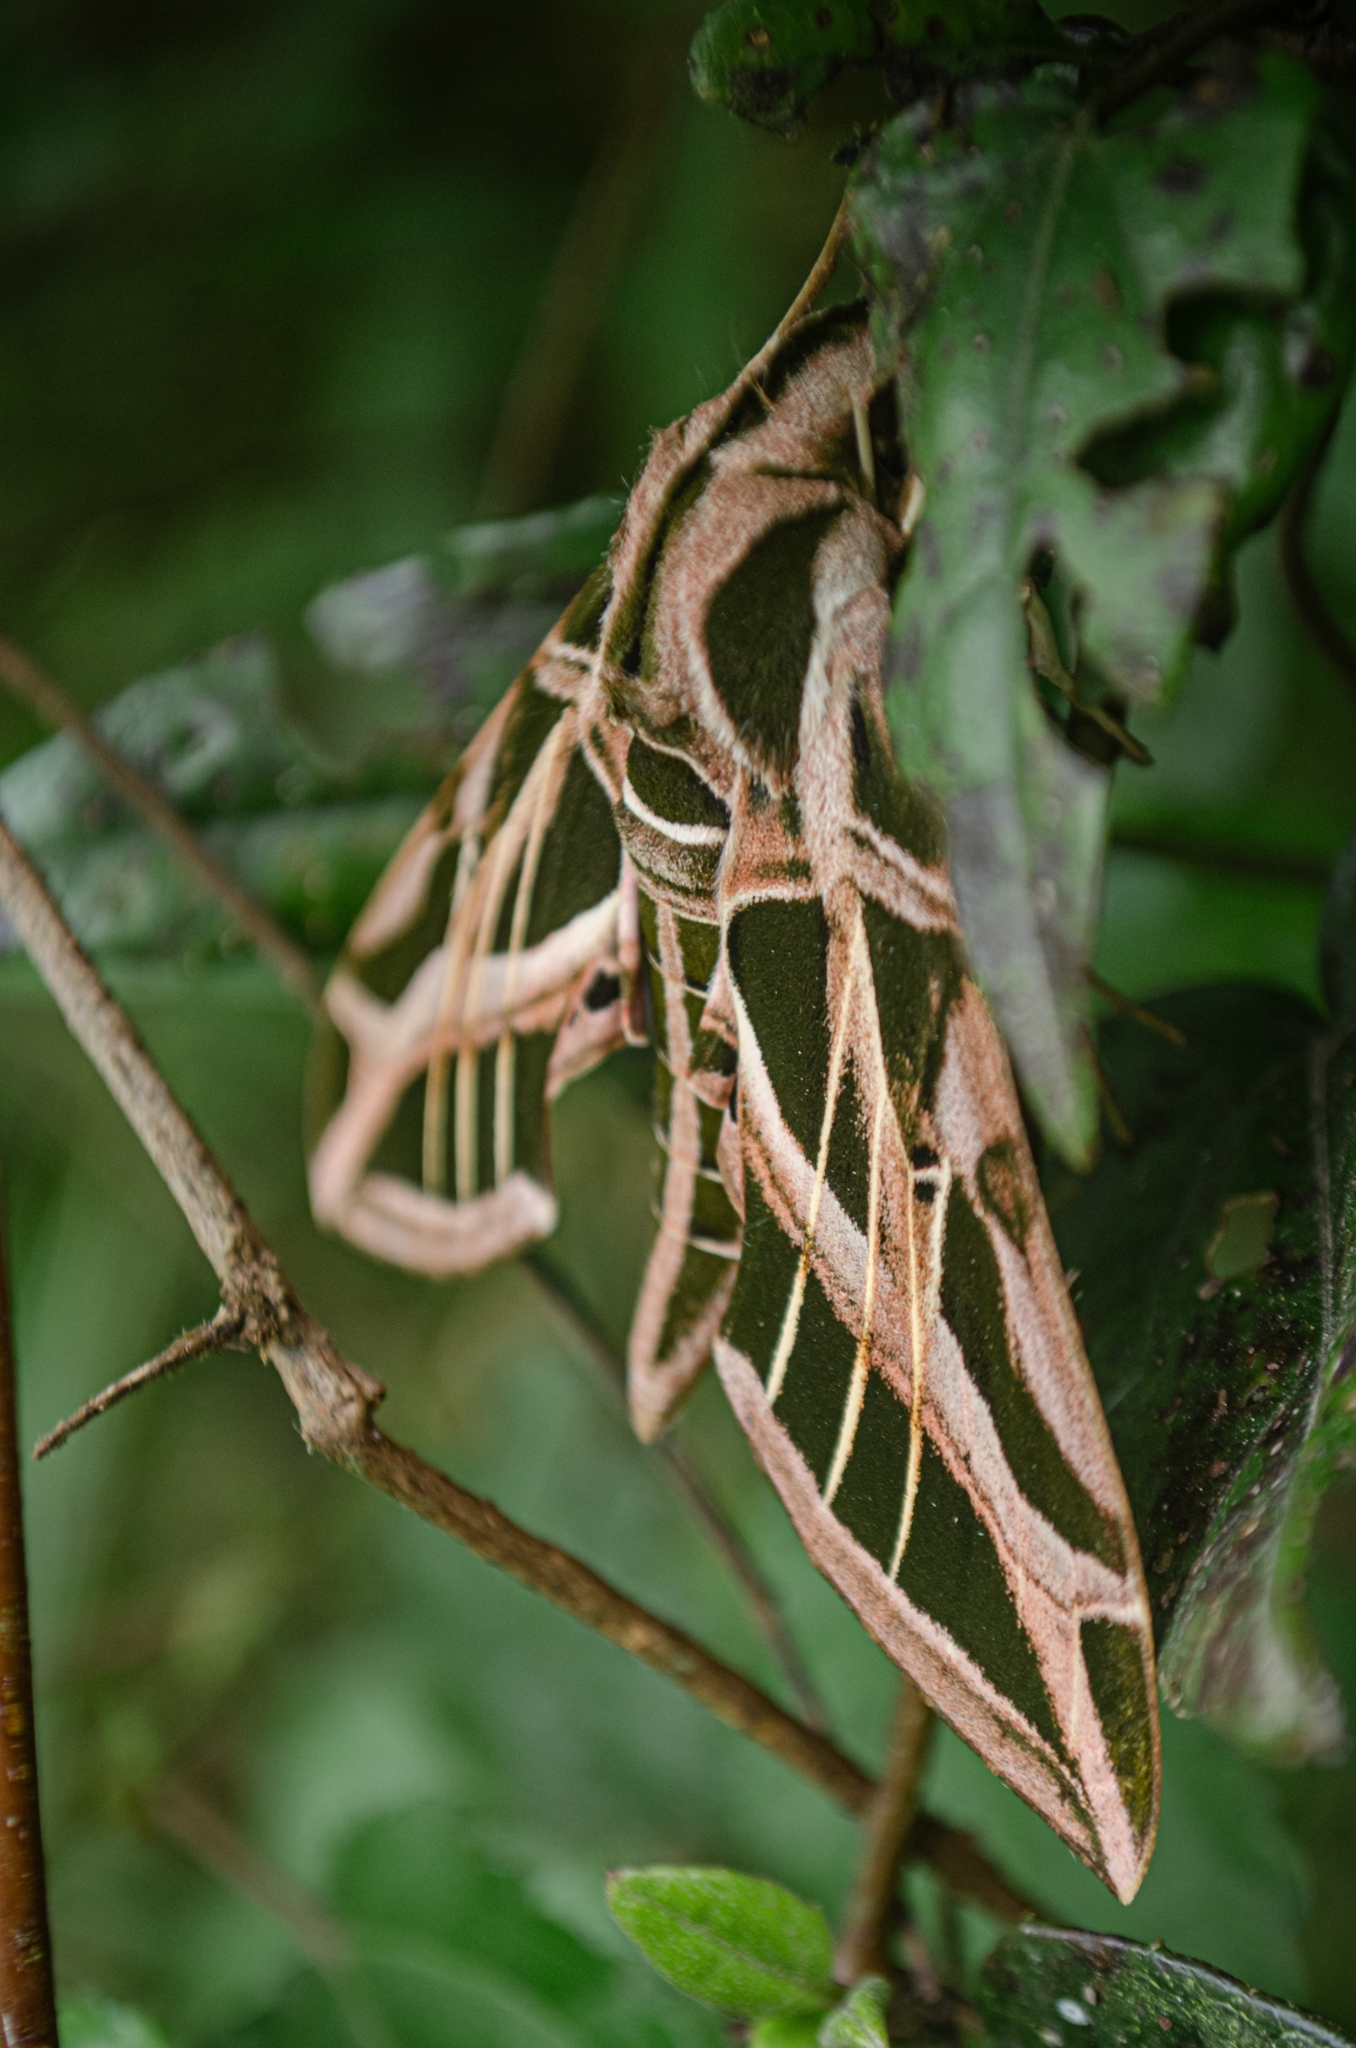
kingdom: Animalia
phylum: Arthropoda
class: Insecta
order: Lepidoptera
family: Sphingidae
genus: Eumorpha
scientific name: Eumorpha vitis
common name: Vine sphinx
